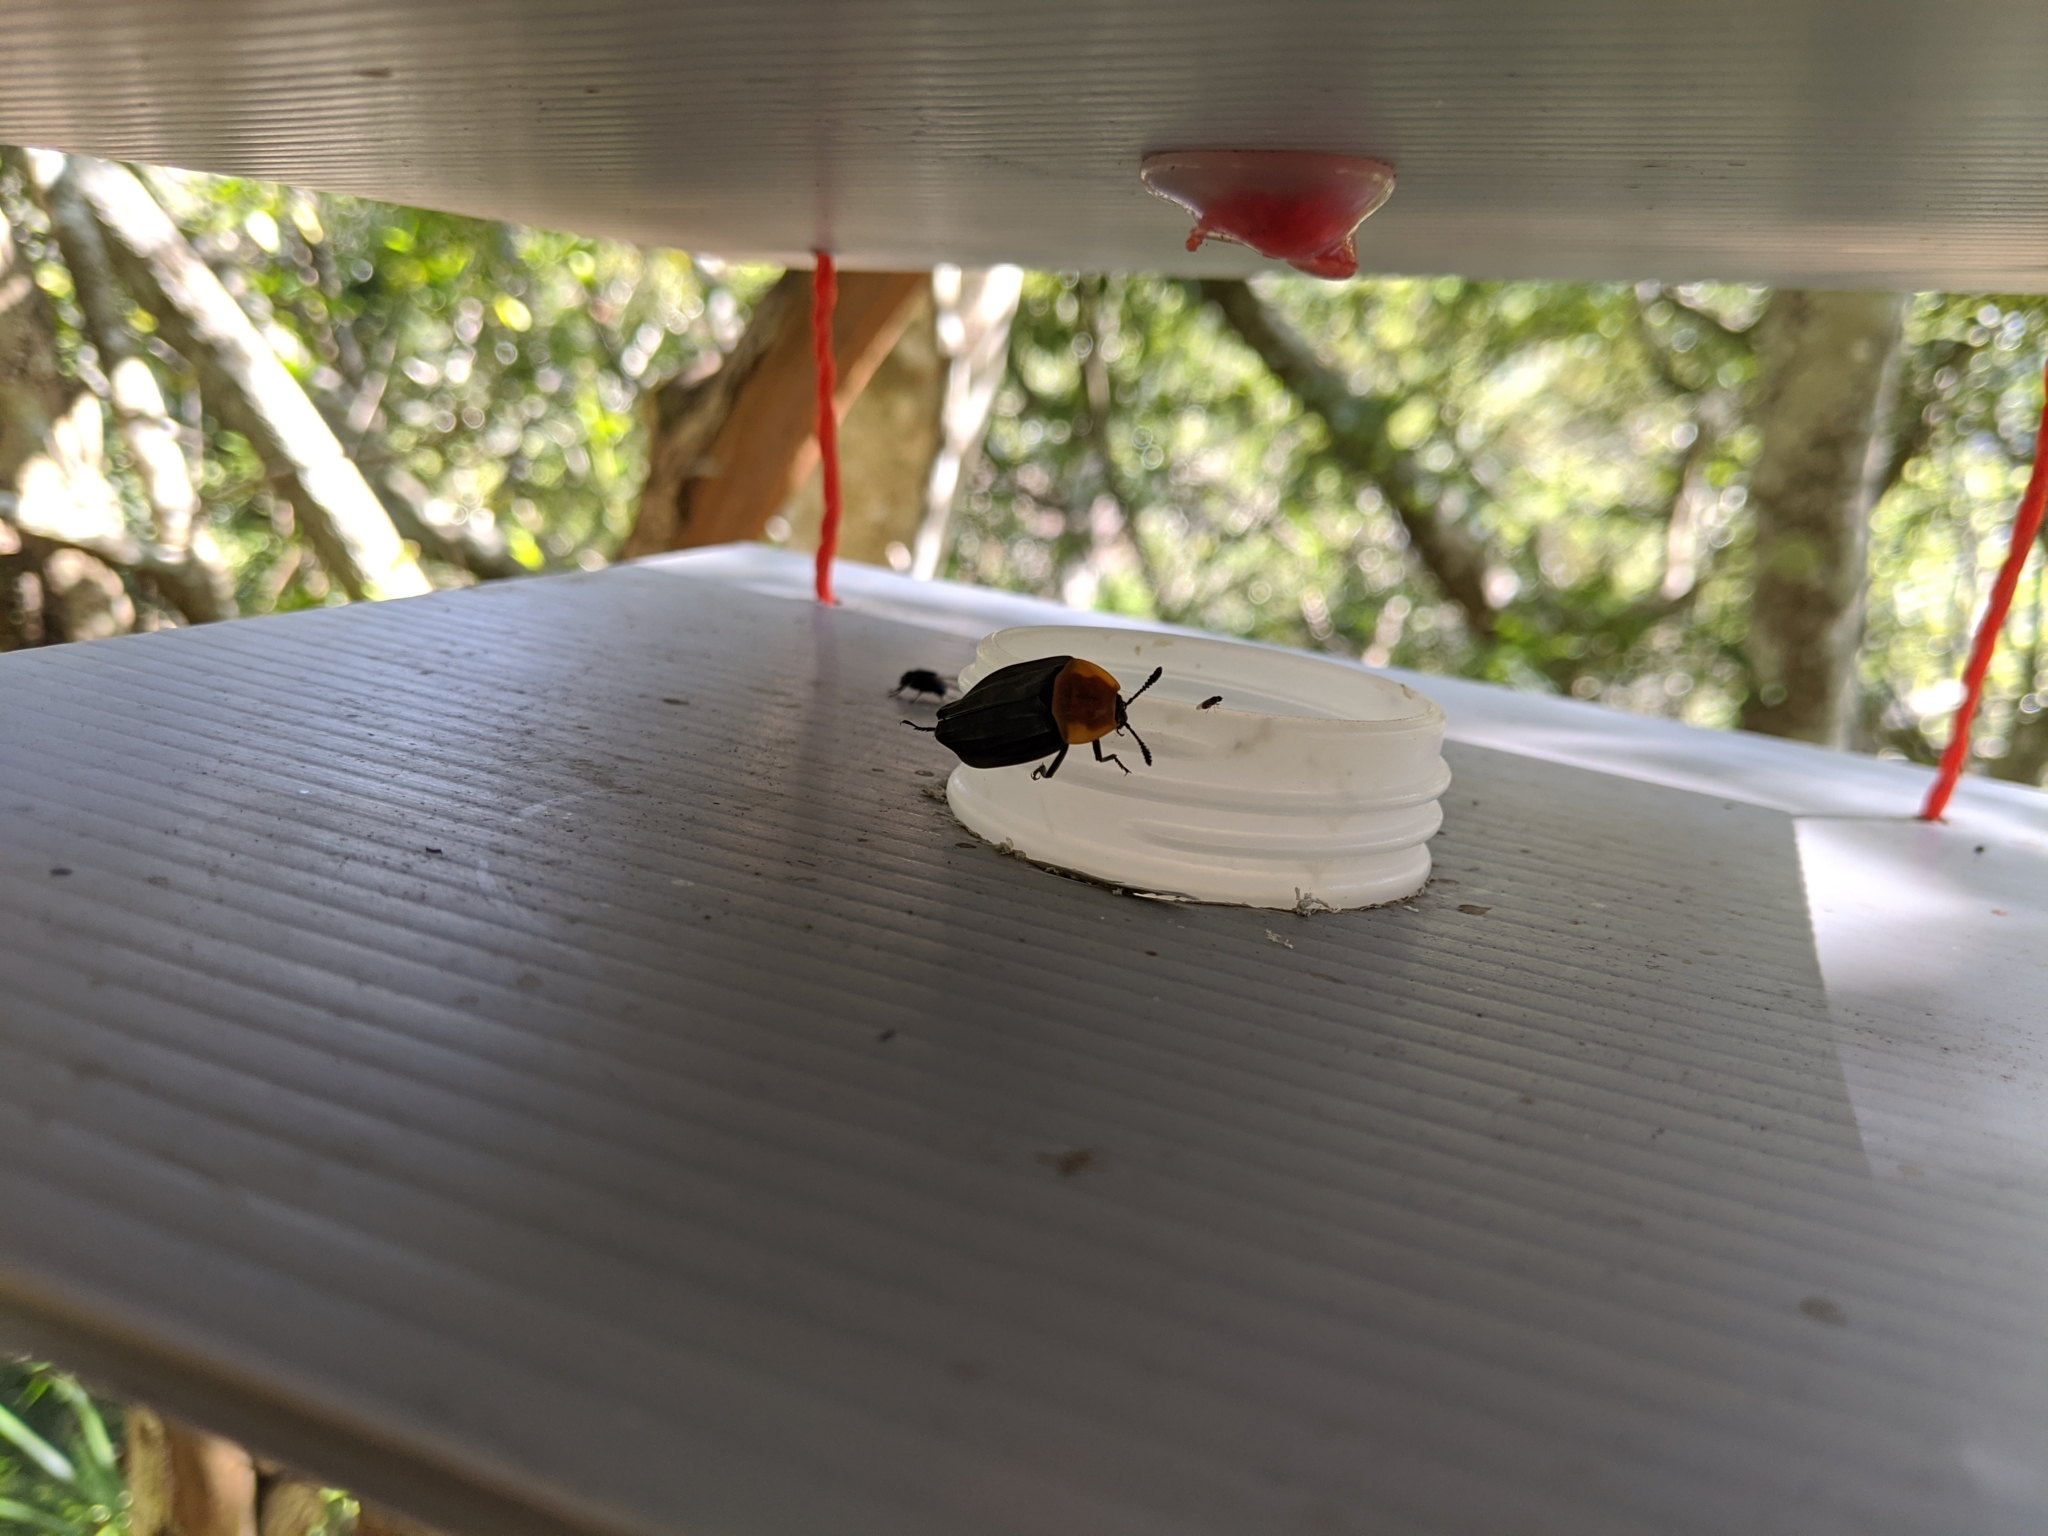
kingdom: Animalia
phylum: Arthropoda
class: Insecta
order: Coleoptera
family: Staphylinidae
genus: Necrophila
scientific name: Necrophila cyaneocephala
